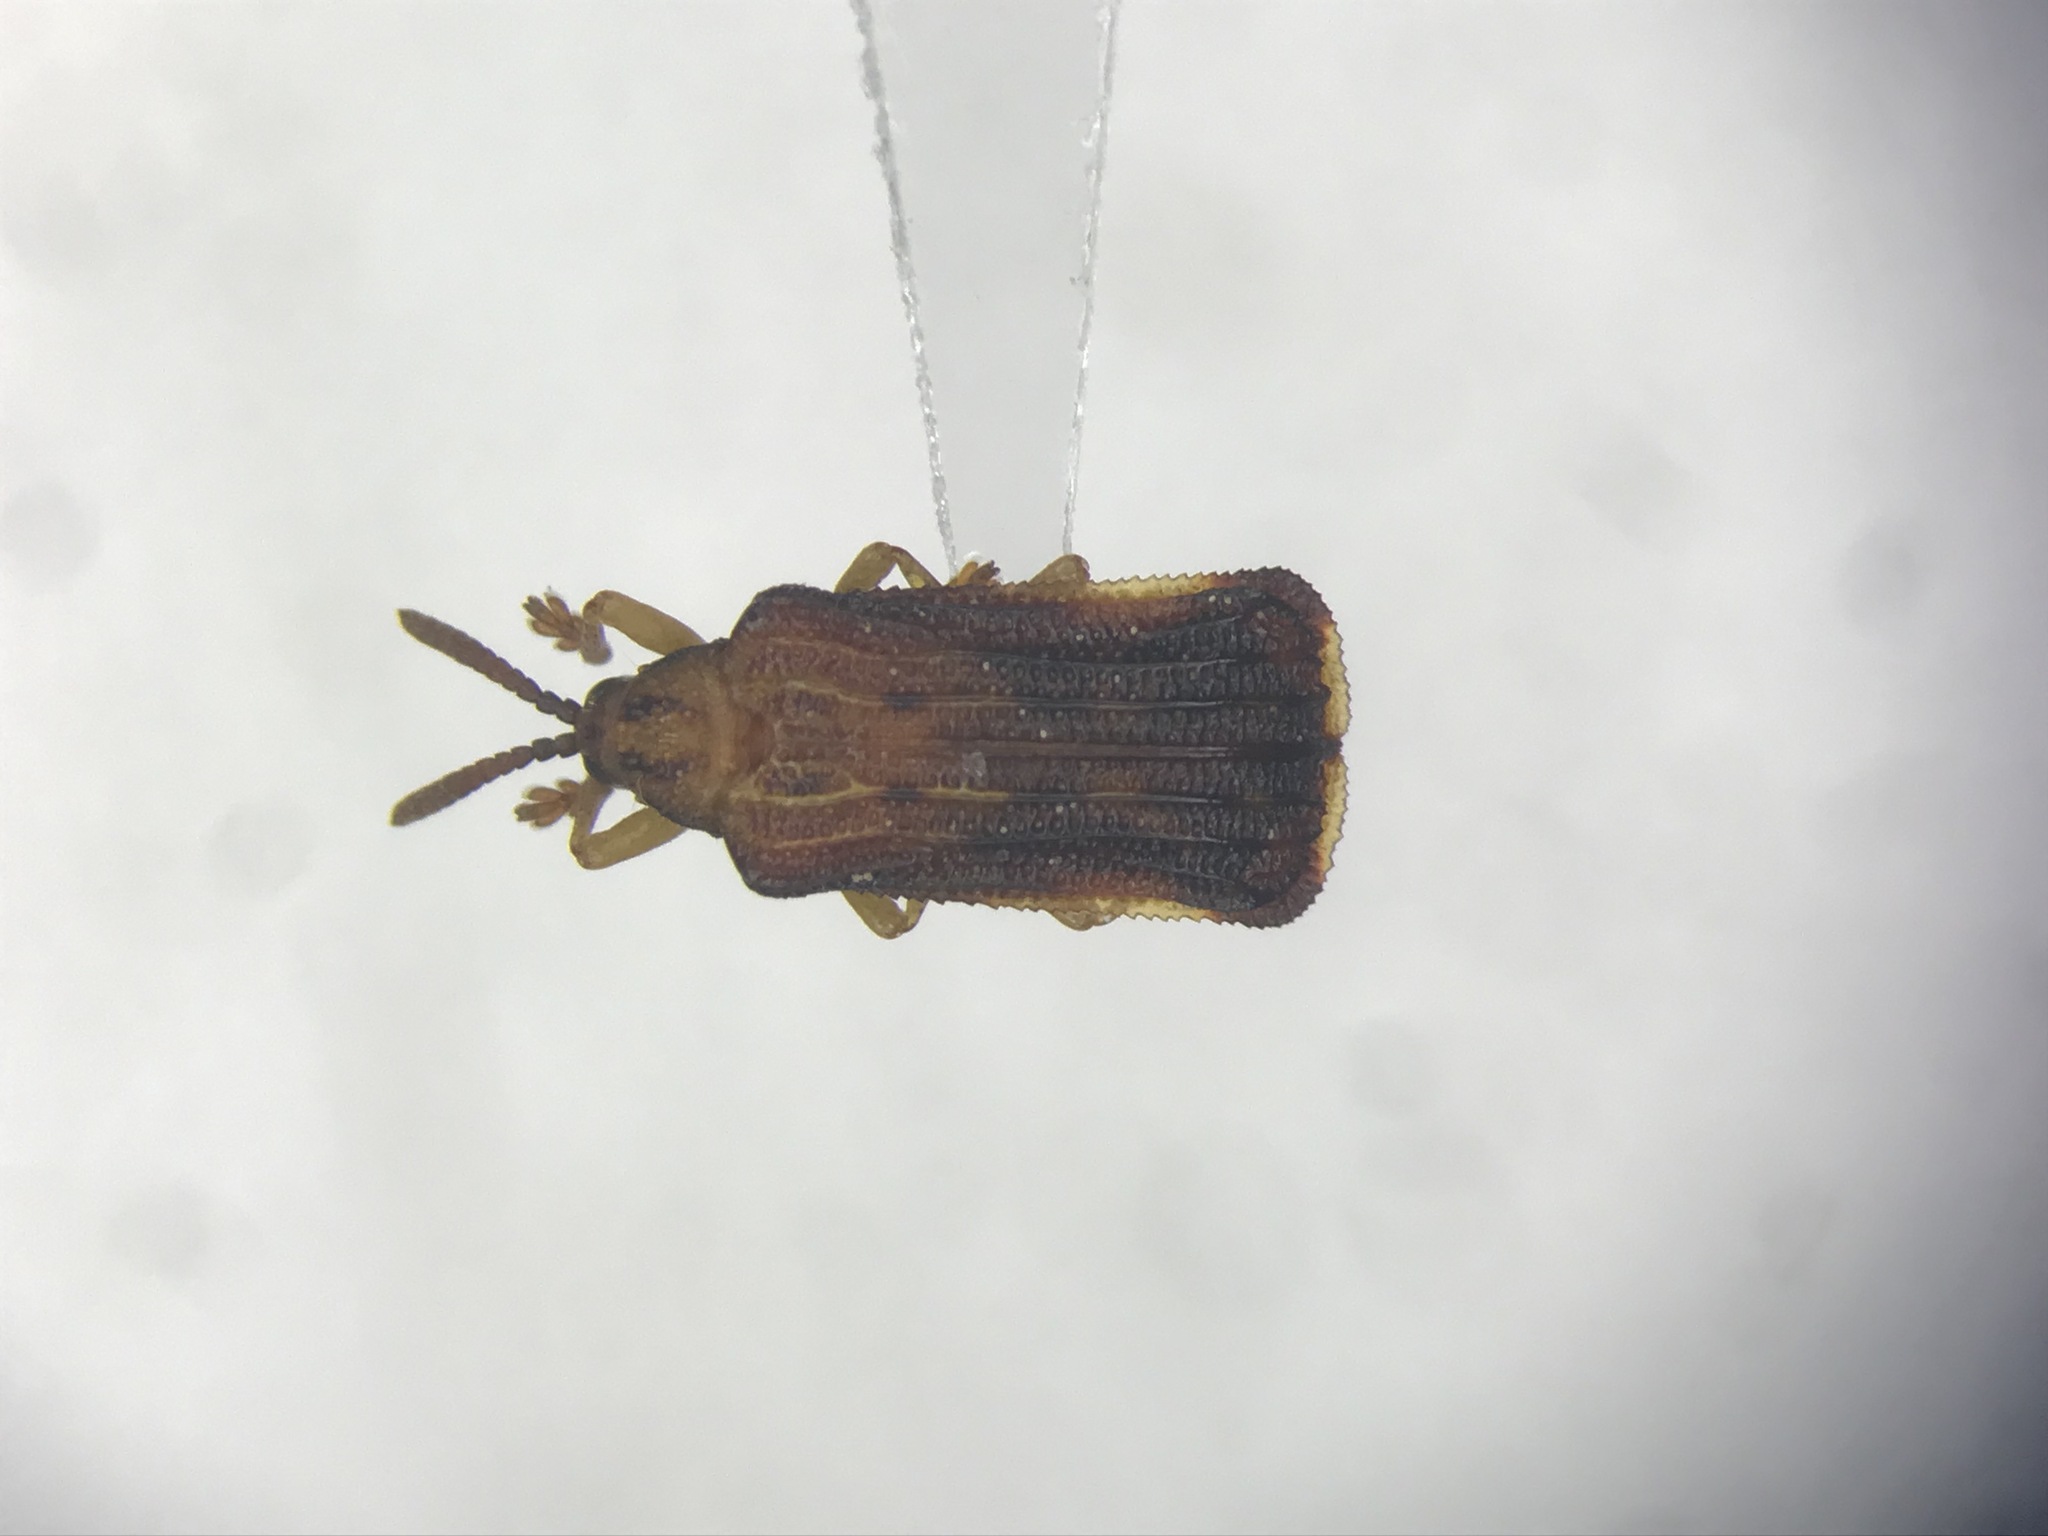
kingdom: Animalia
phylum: Arthropoda
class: Insecta
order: Coleoptera
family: Chrysomelidae
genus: Baliosus
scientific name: Baliosus nervosus
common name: Basswood leaf miner
